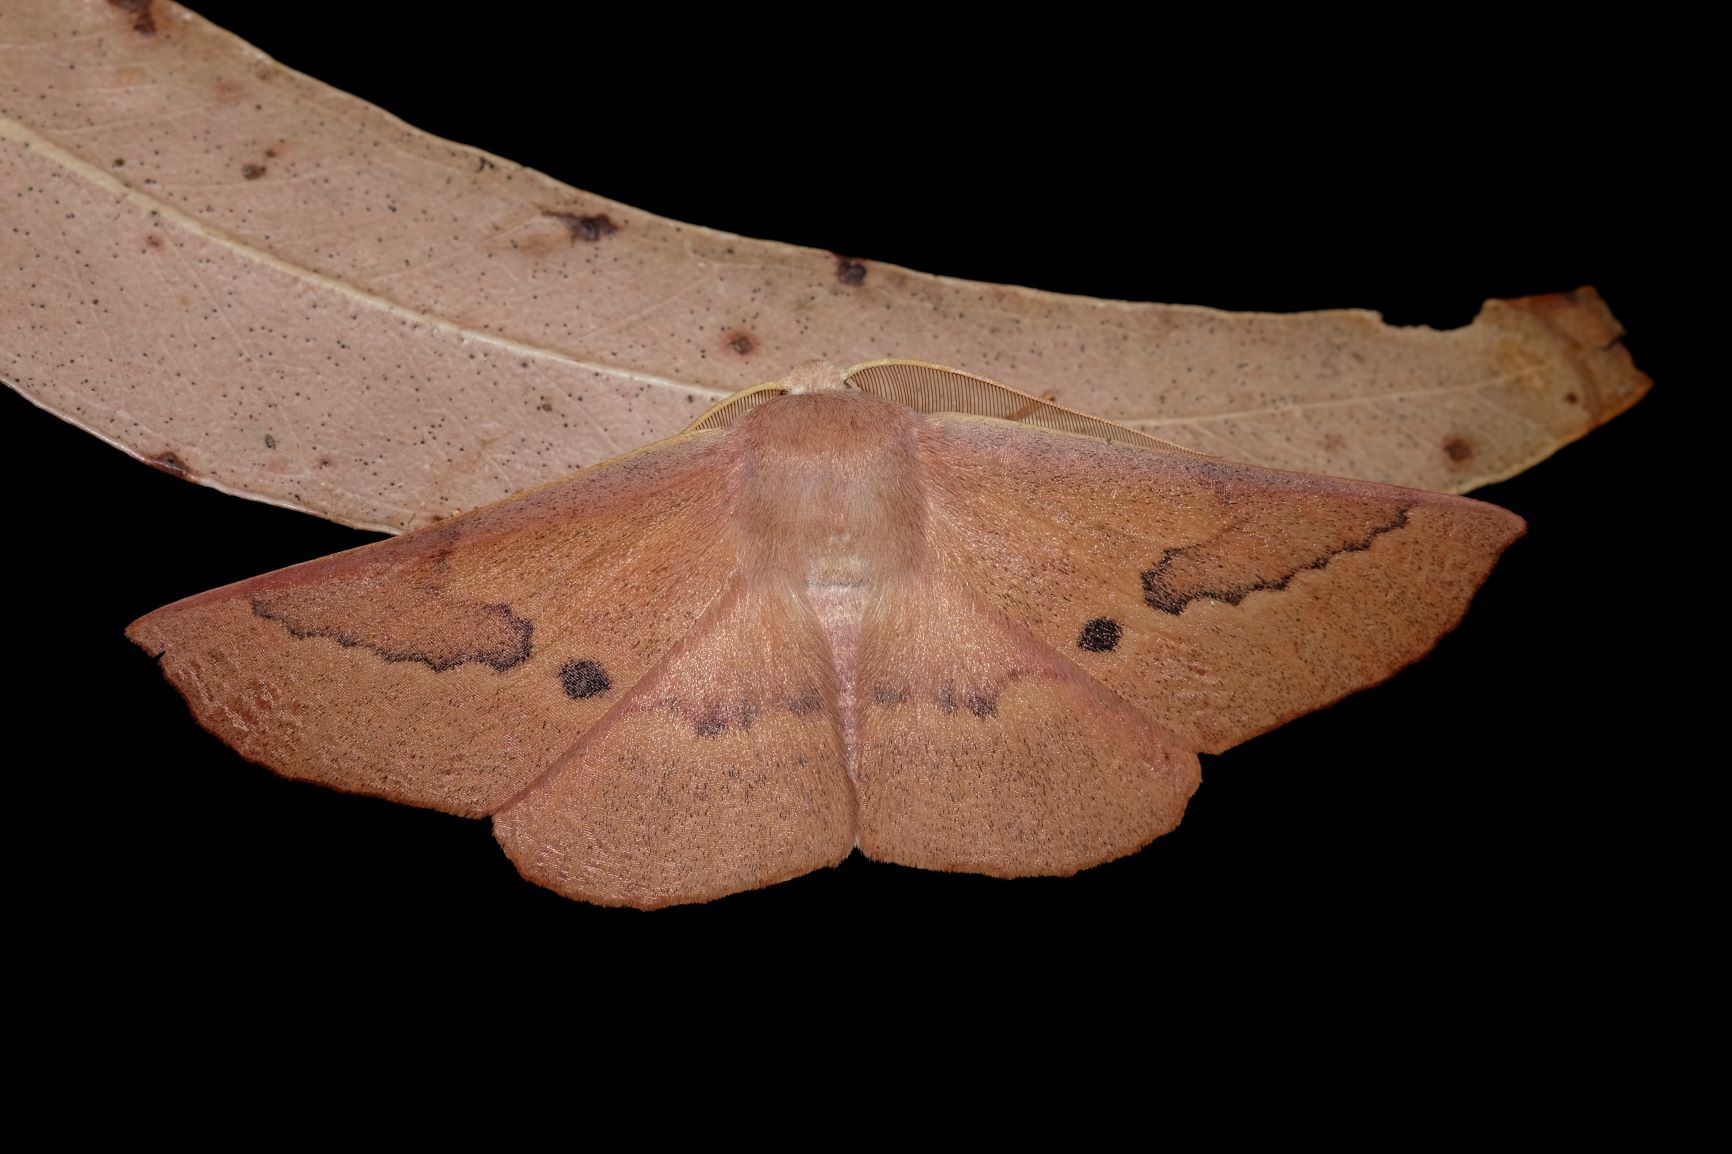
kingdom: Animalia
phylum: Arthropoda
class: Insecta
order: Lepidoptera
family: Geometridae
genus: Monoctenia
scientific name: Monoctenia falernaria
